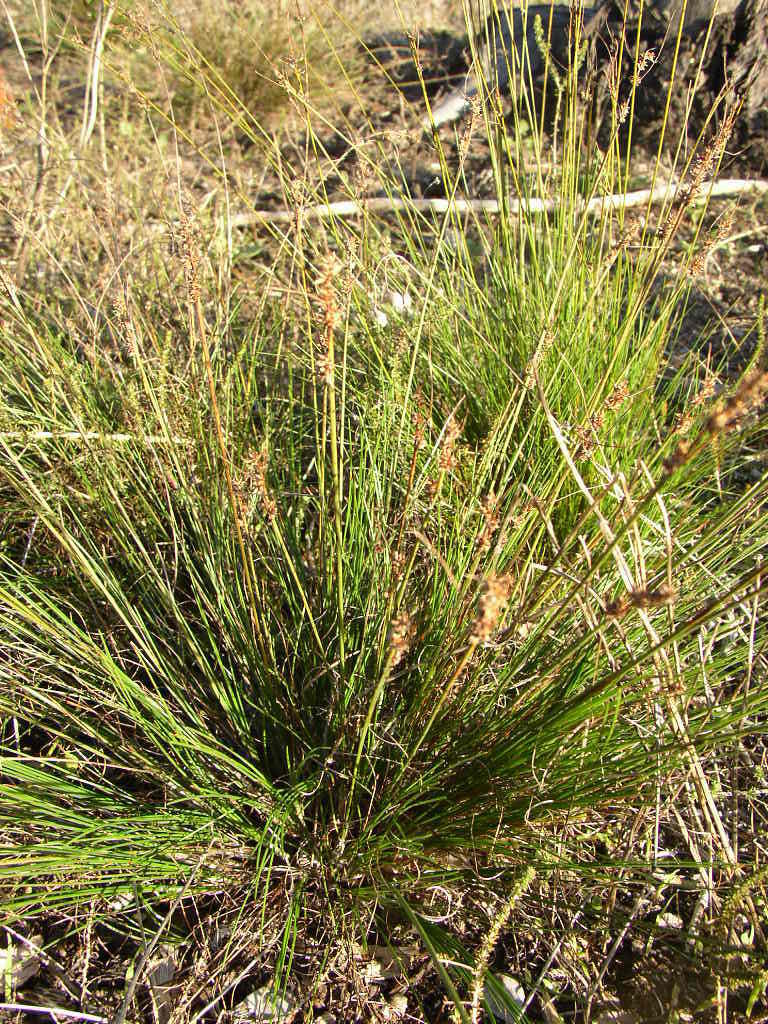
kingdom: Plantae
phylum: Tracheophyta
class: Liliopsida
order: Poales
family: Cyperaceae
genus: Ficinia
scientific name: Ficinia bulbosa
